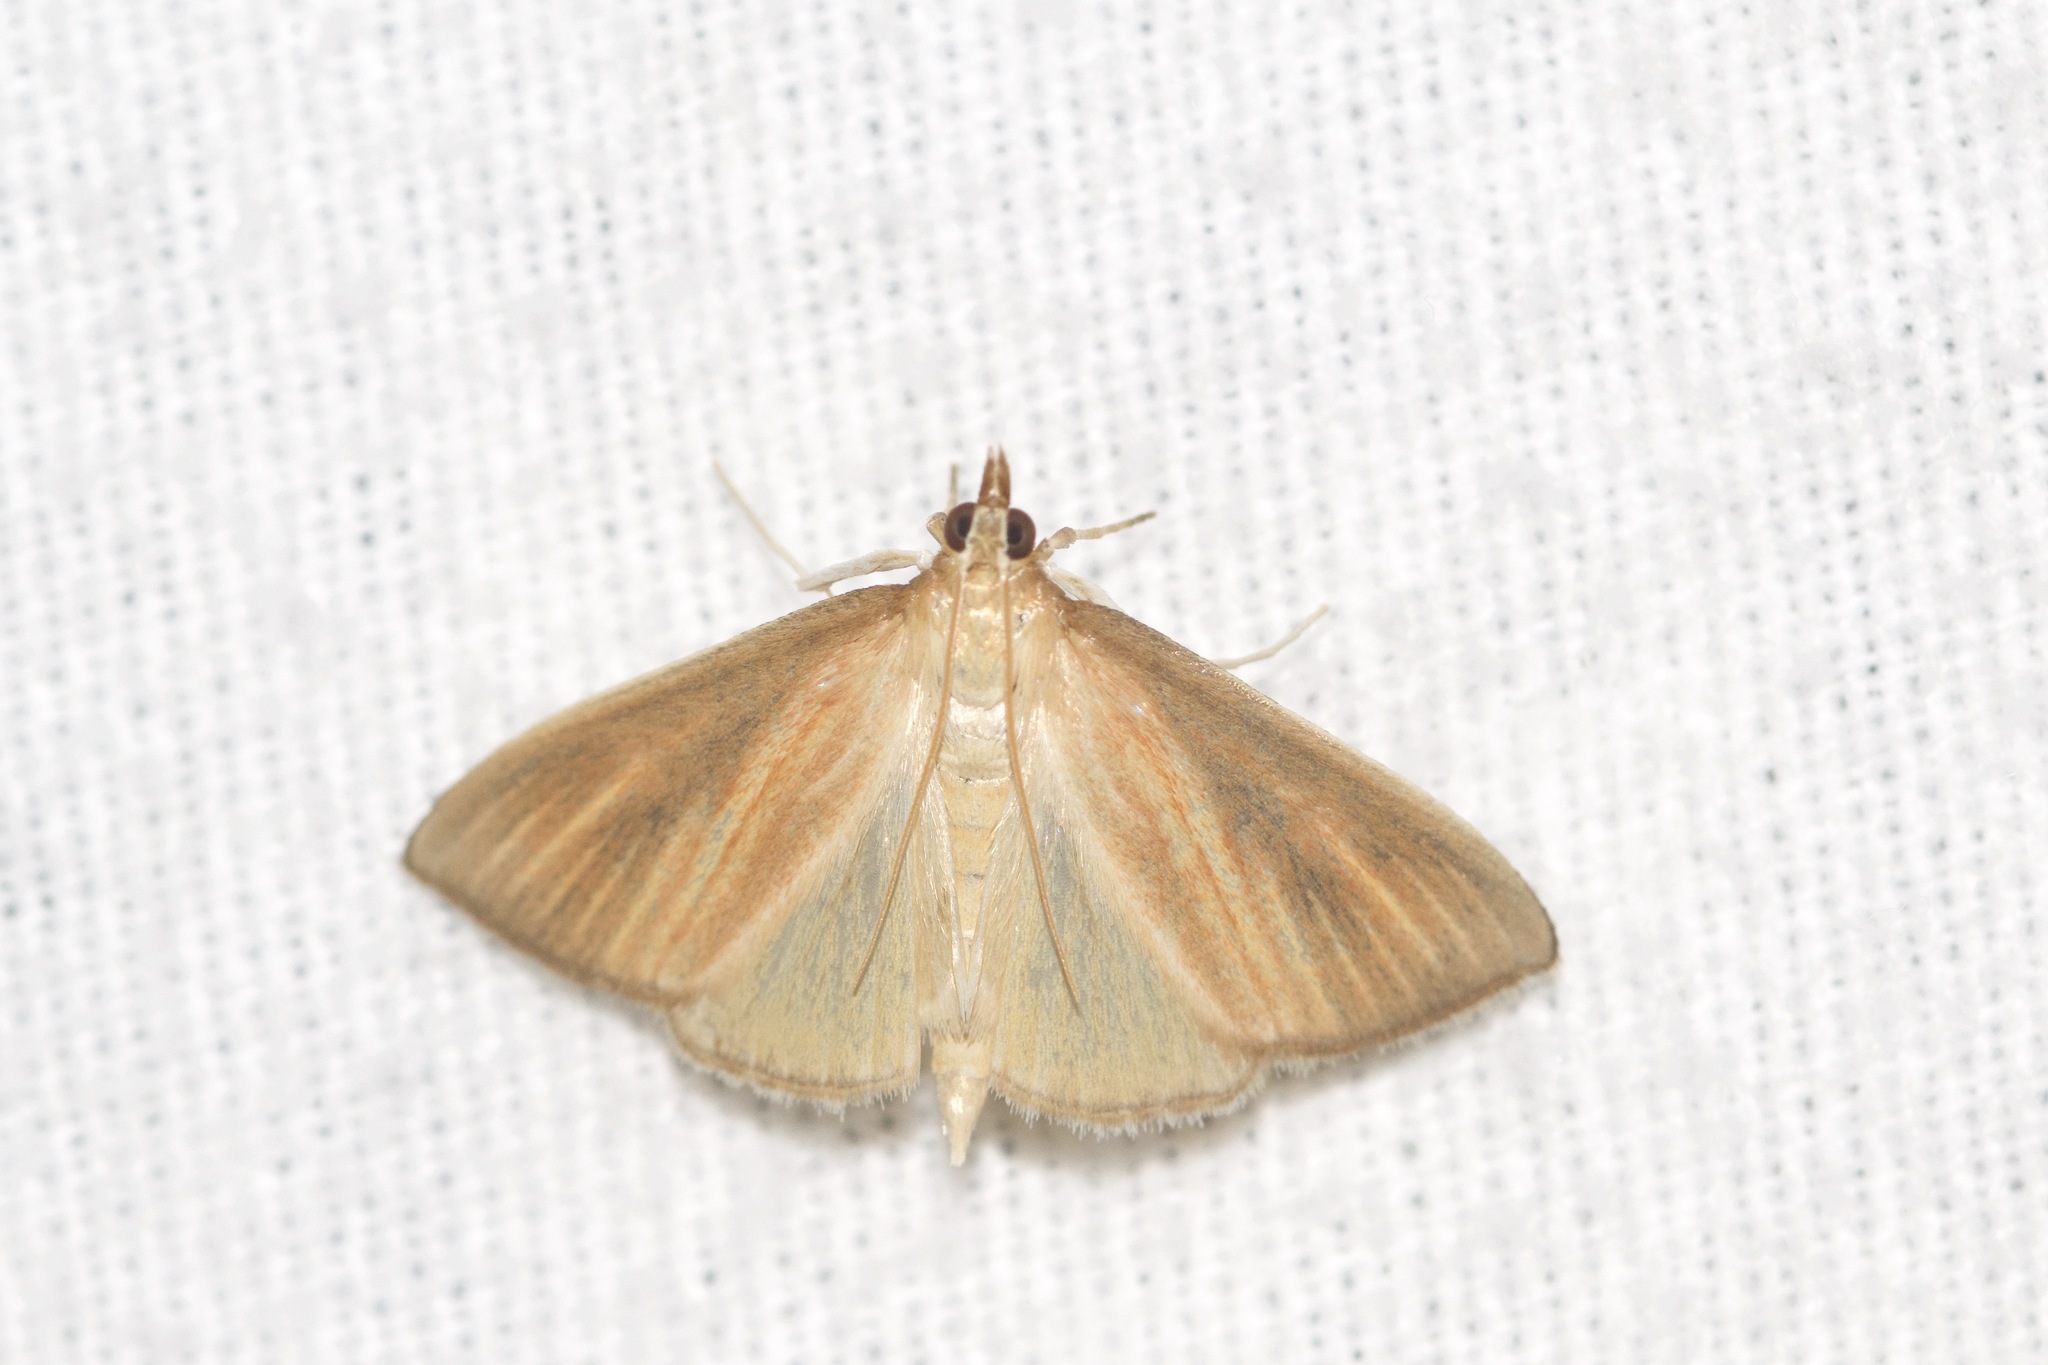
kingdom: Animalia
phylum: Arthropoda
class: Insecta
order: Lepidoptera
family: Crambidae
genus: Nascia
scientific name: Nascia acutellus
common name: Streaked orange moth
